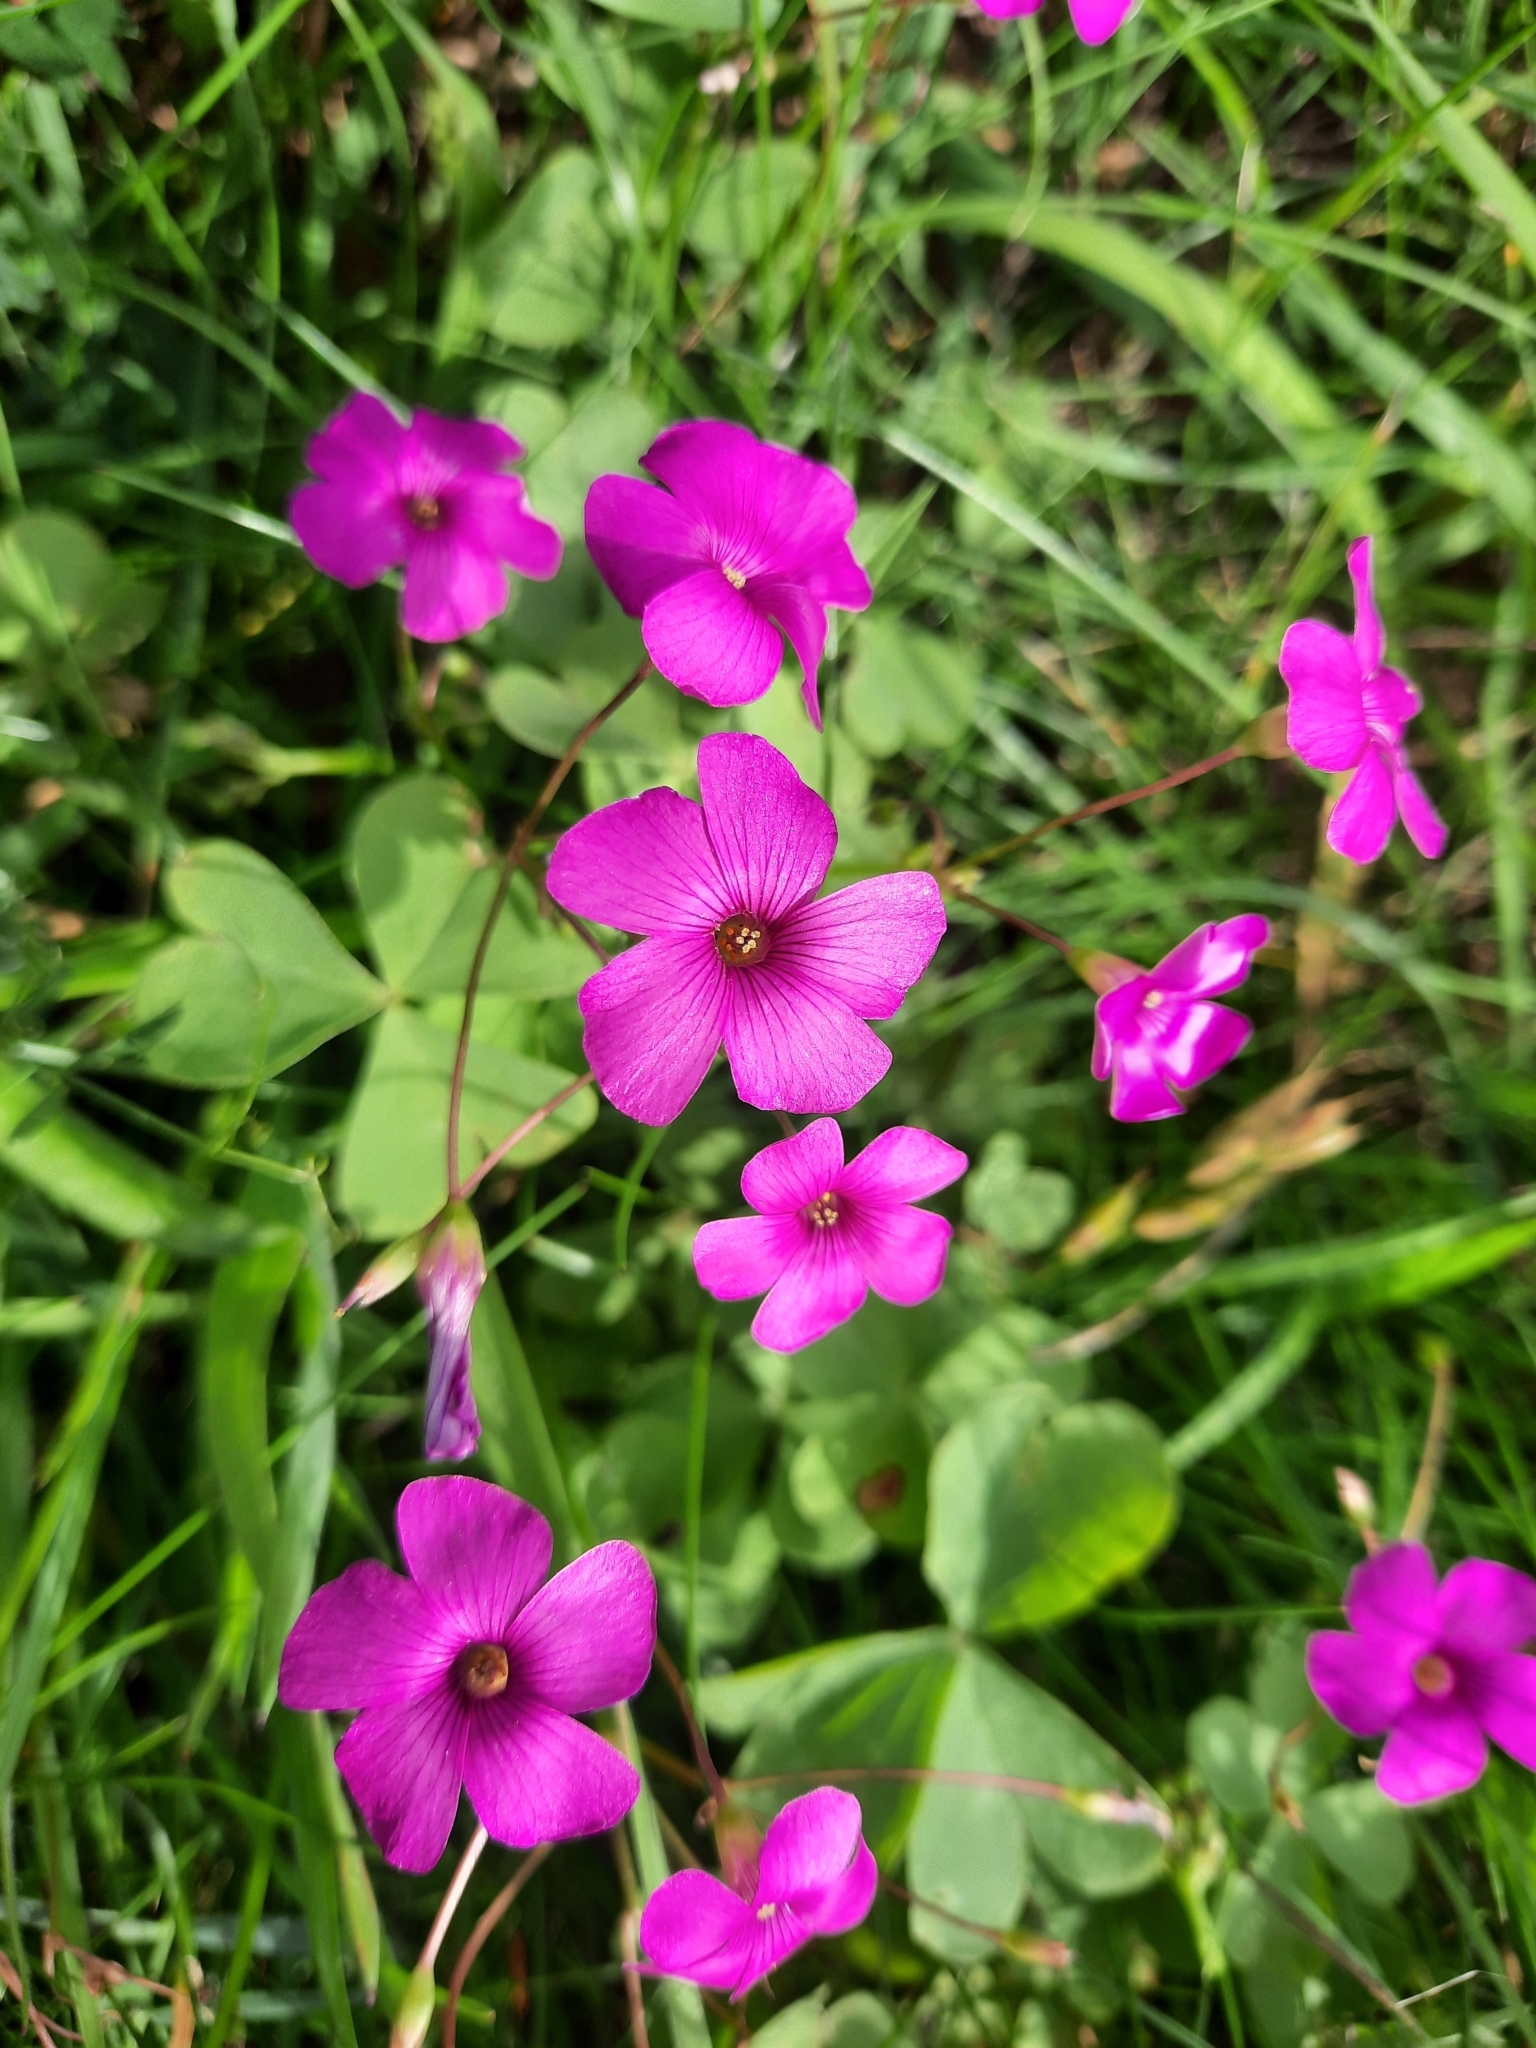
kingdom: Plantae
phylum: Tracheophyta
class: Magnoliopsida
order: Oxalidales
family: Oxalidaceae
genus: Oxalis
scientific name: Oxalis articulata
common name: Pink-sorrel
